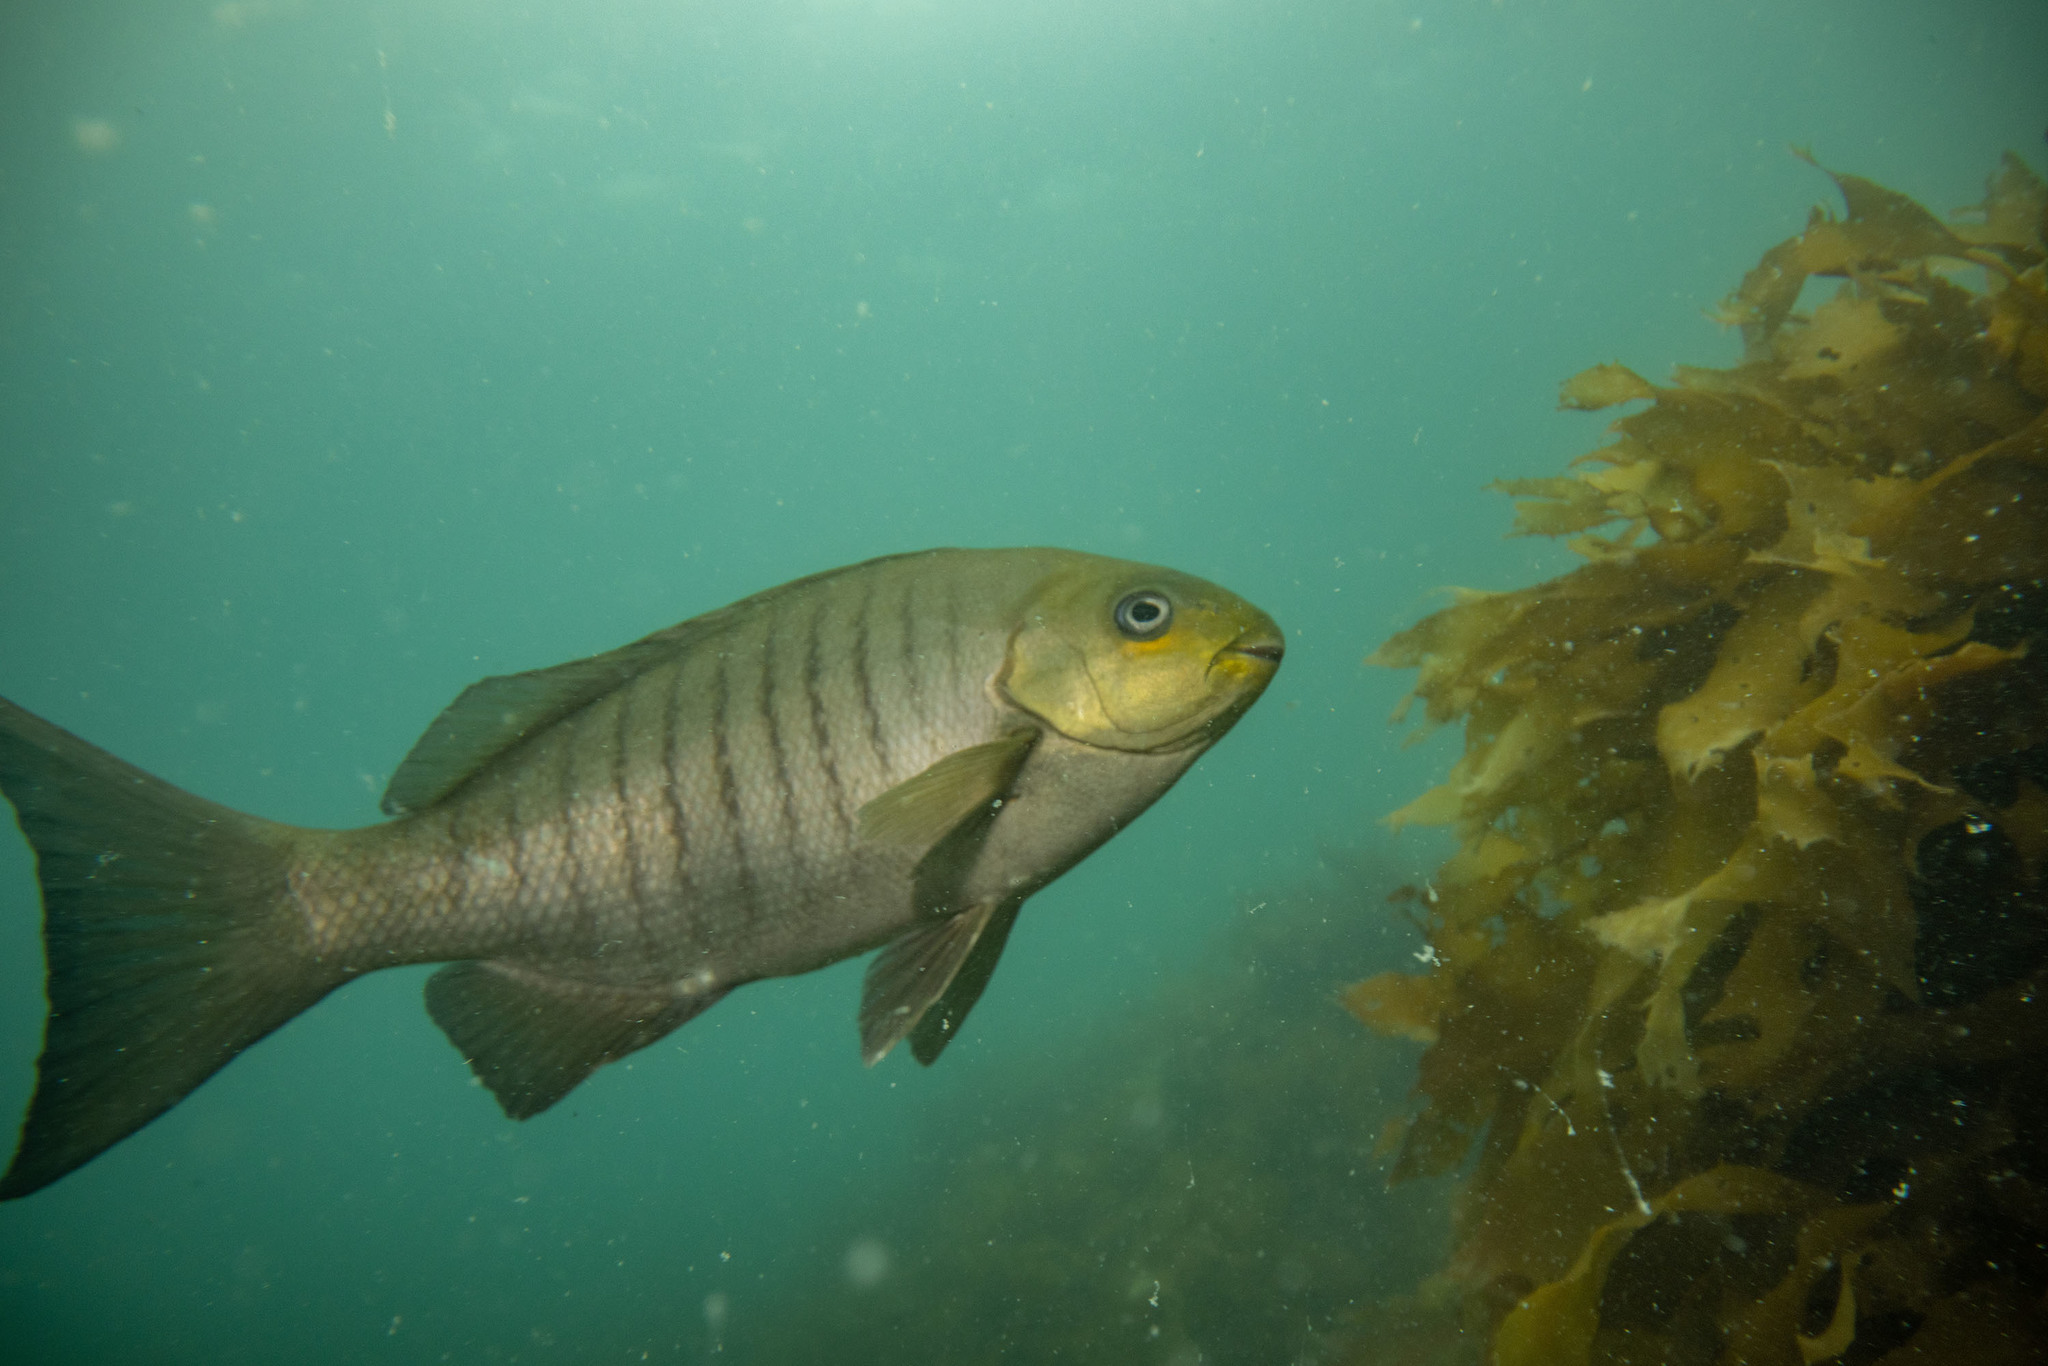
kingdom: Animalia
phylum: Chordata
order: Perciformes
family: Kyphosidae
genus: Girella
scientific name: Girella tricuspidata
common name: Parore
